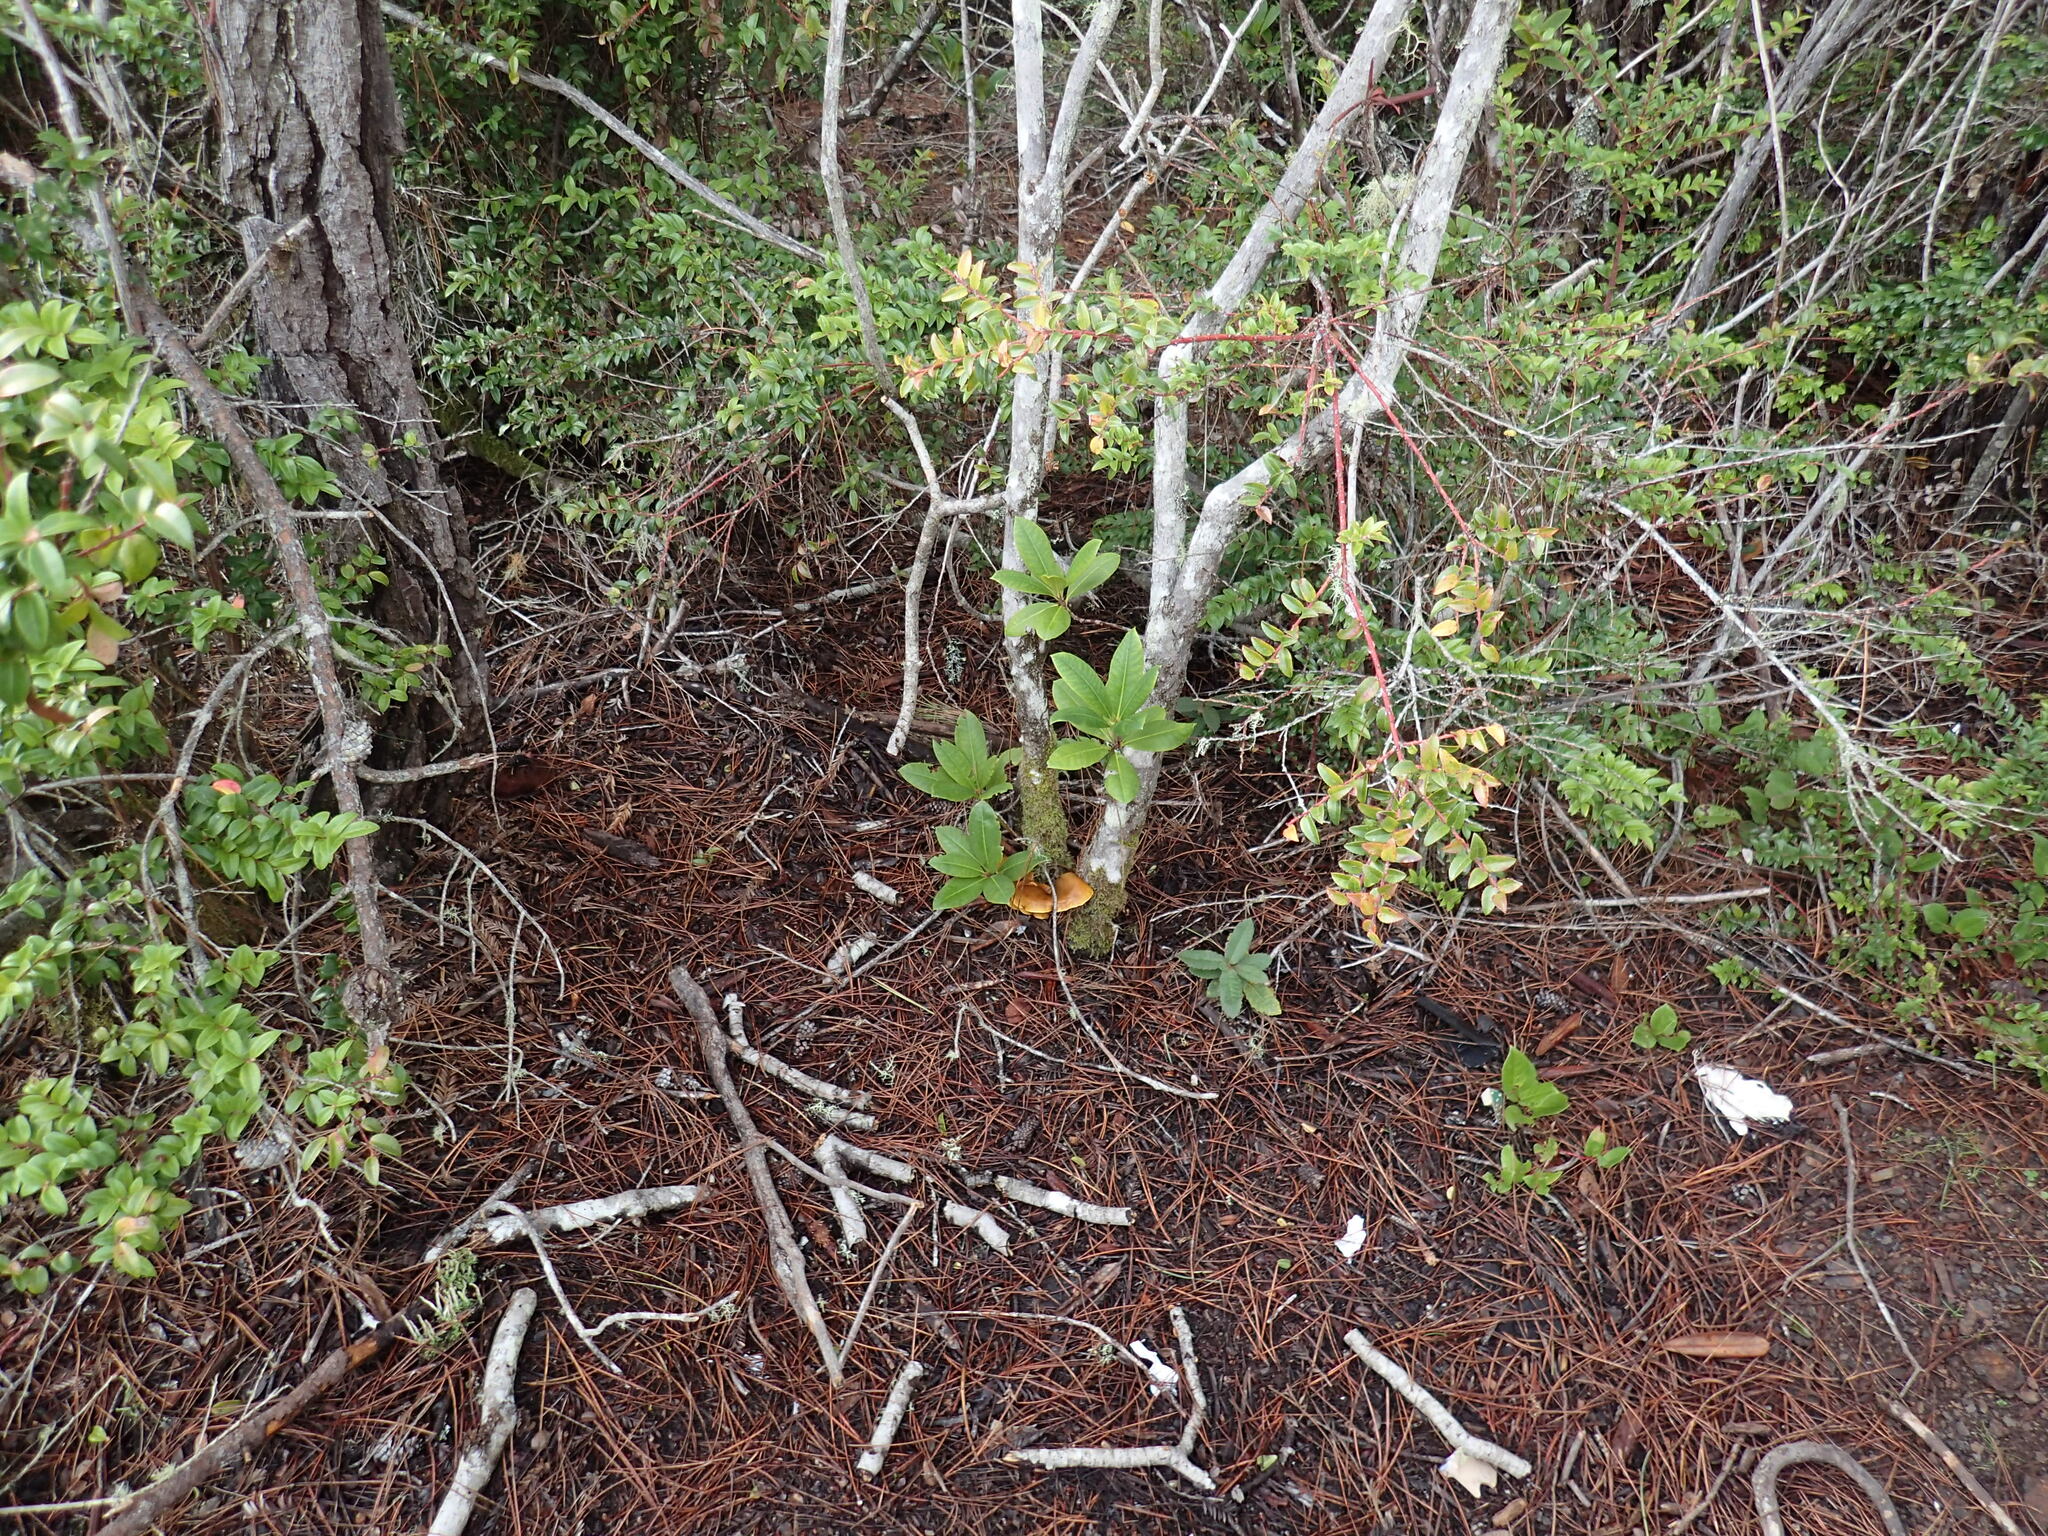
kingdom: Fungi
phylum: Basidiomycota
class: Agaricomycetes
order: Agaricales
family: Omphalotaceae
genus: Omphalotus
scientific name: Omphalotus olivascens
